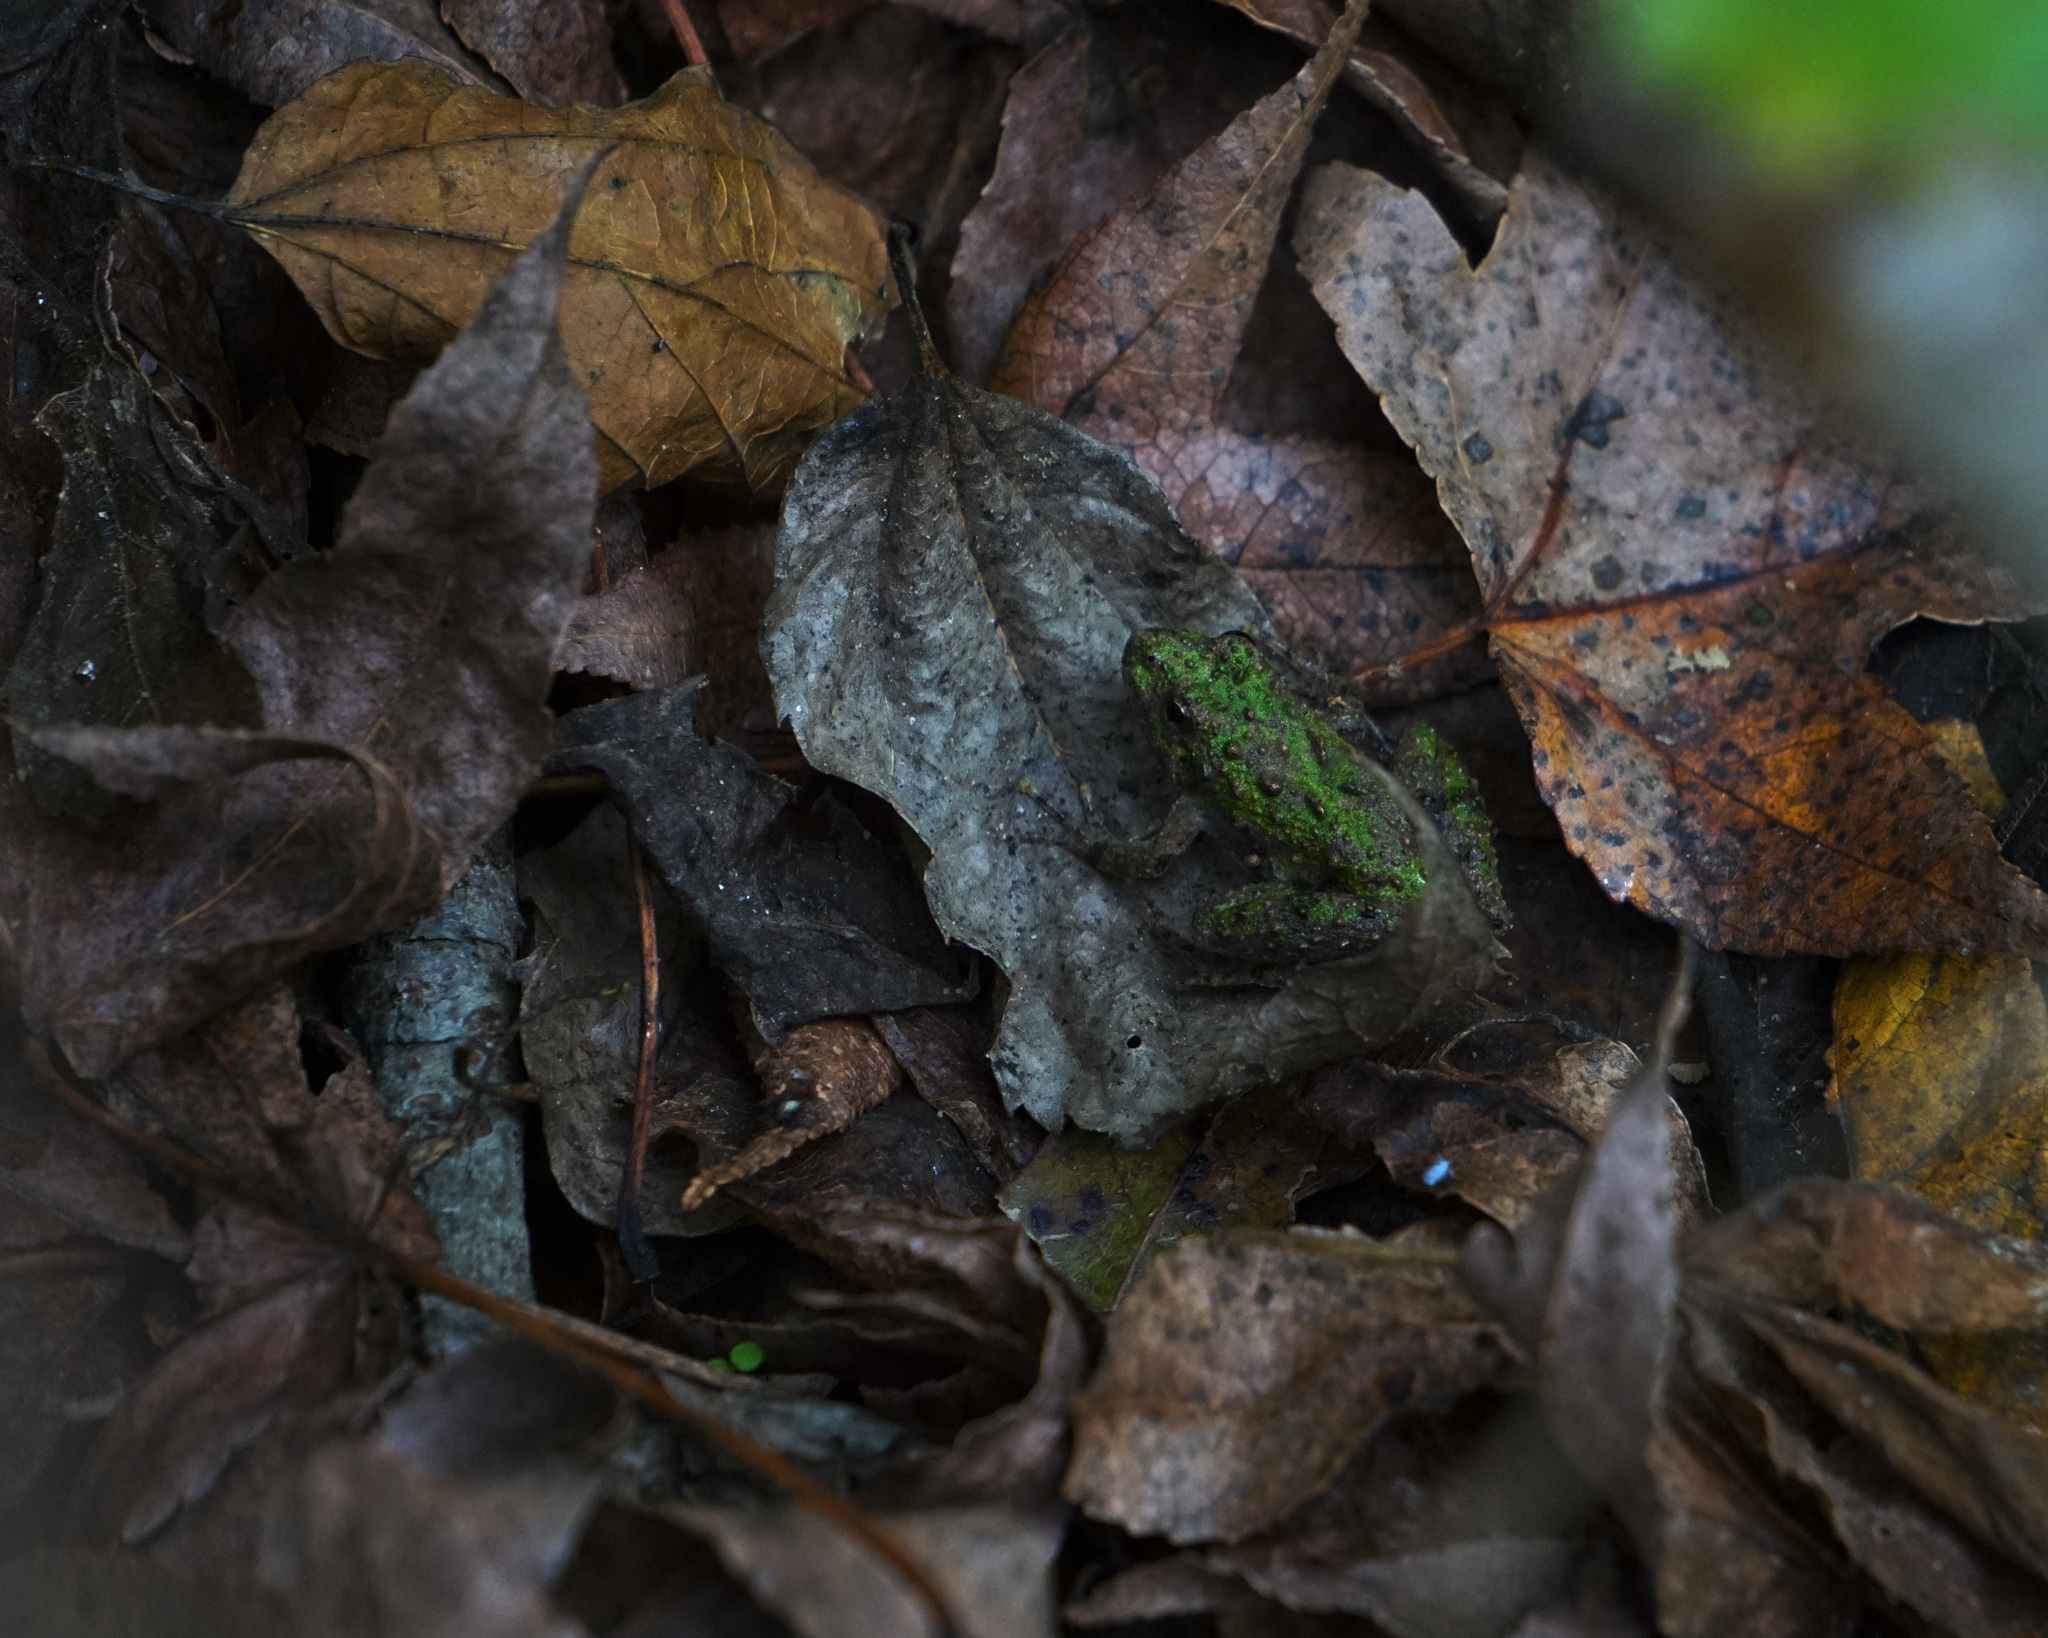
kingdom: Animalia
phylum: Chordata
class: Amphibia
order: Anura
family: Hylidae
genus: Acris
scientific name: Acris crepitans
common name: Northern cricket frog
